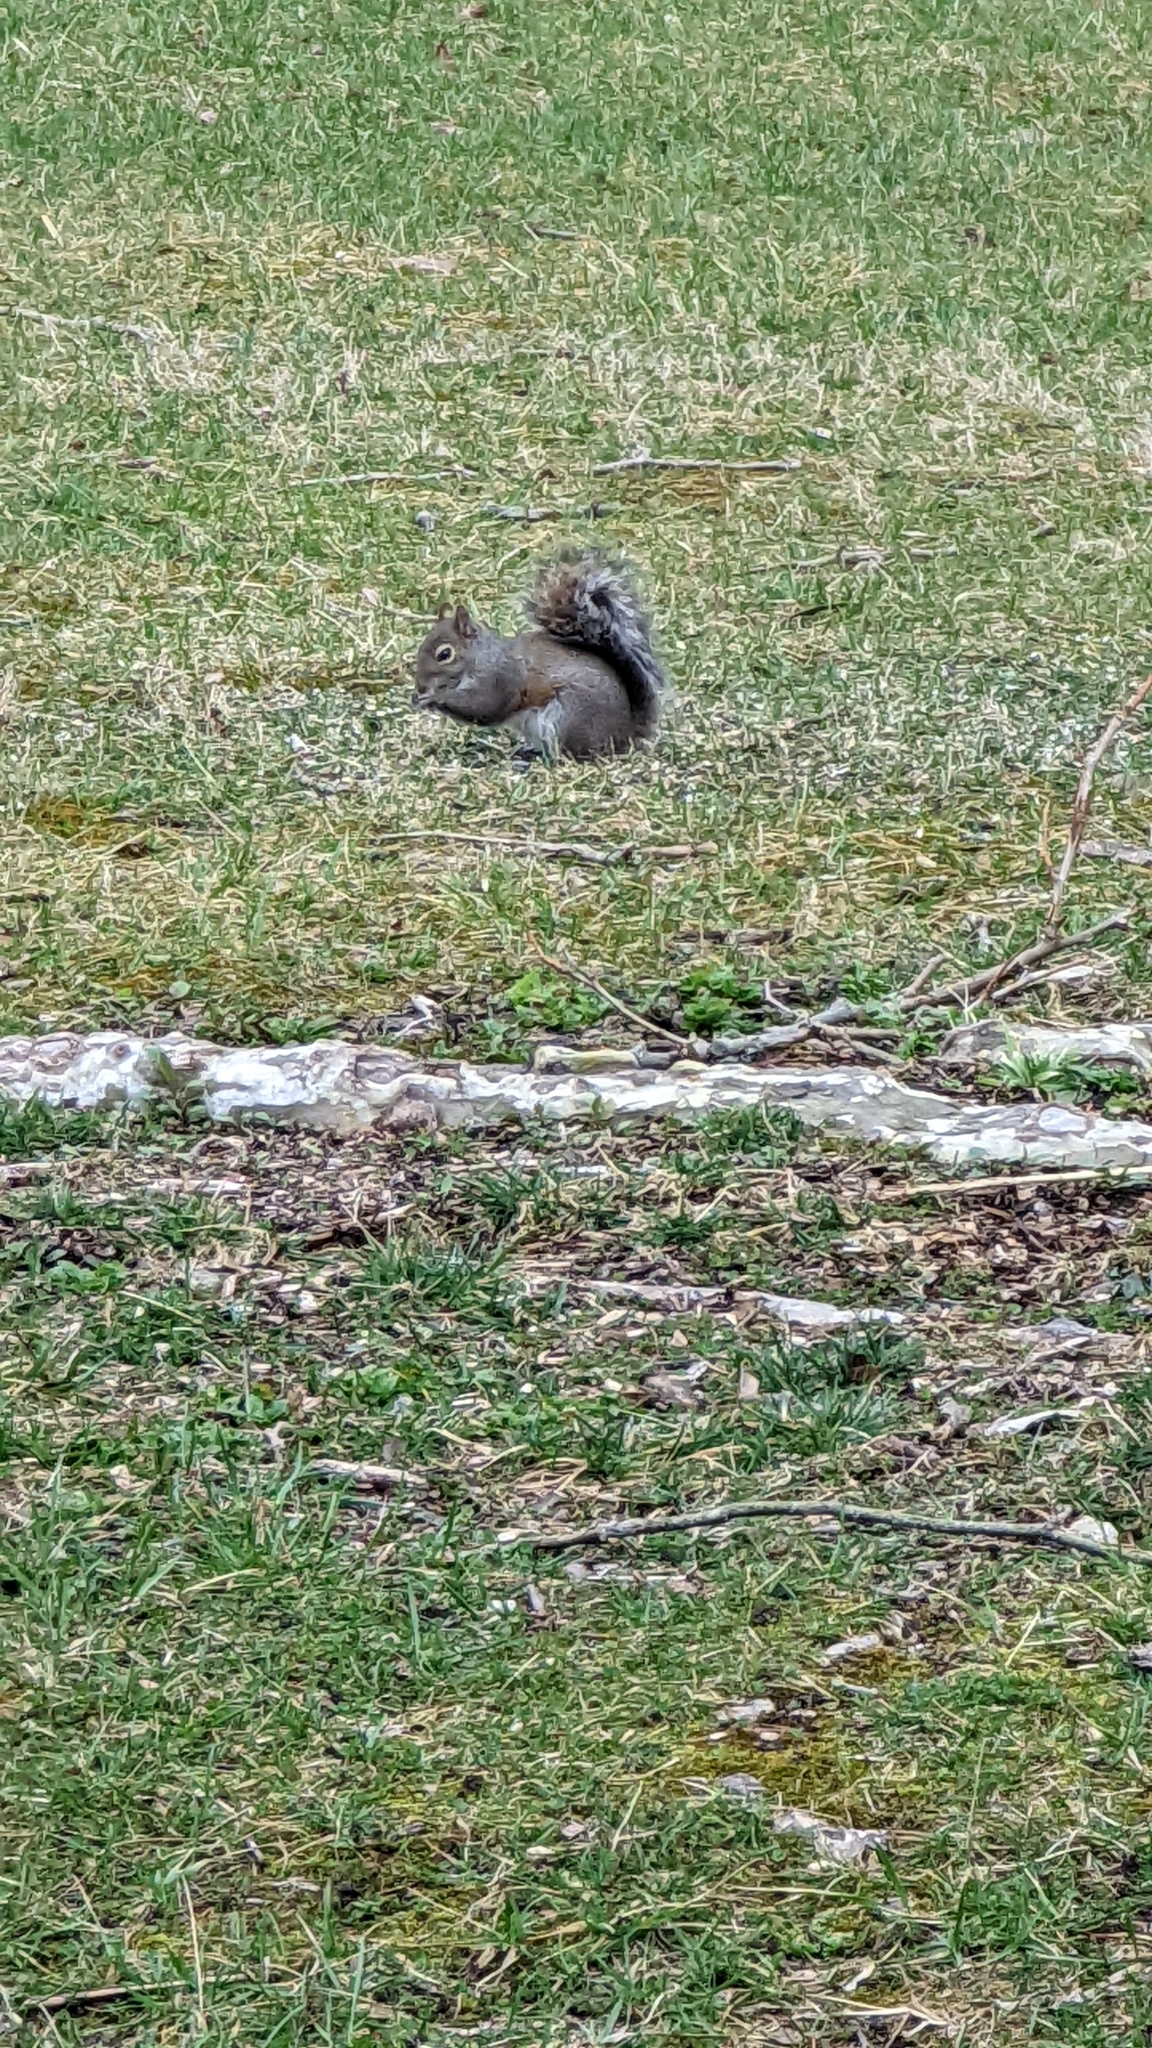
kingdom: Animalia
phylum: Chordata
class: Mammalia
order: Rodentia
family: Sciuridae
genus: Sciurus
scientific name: Sciurus carolinensis
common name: Eastern gray squirrel
